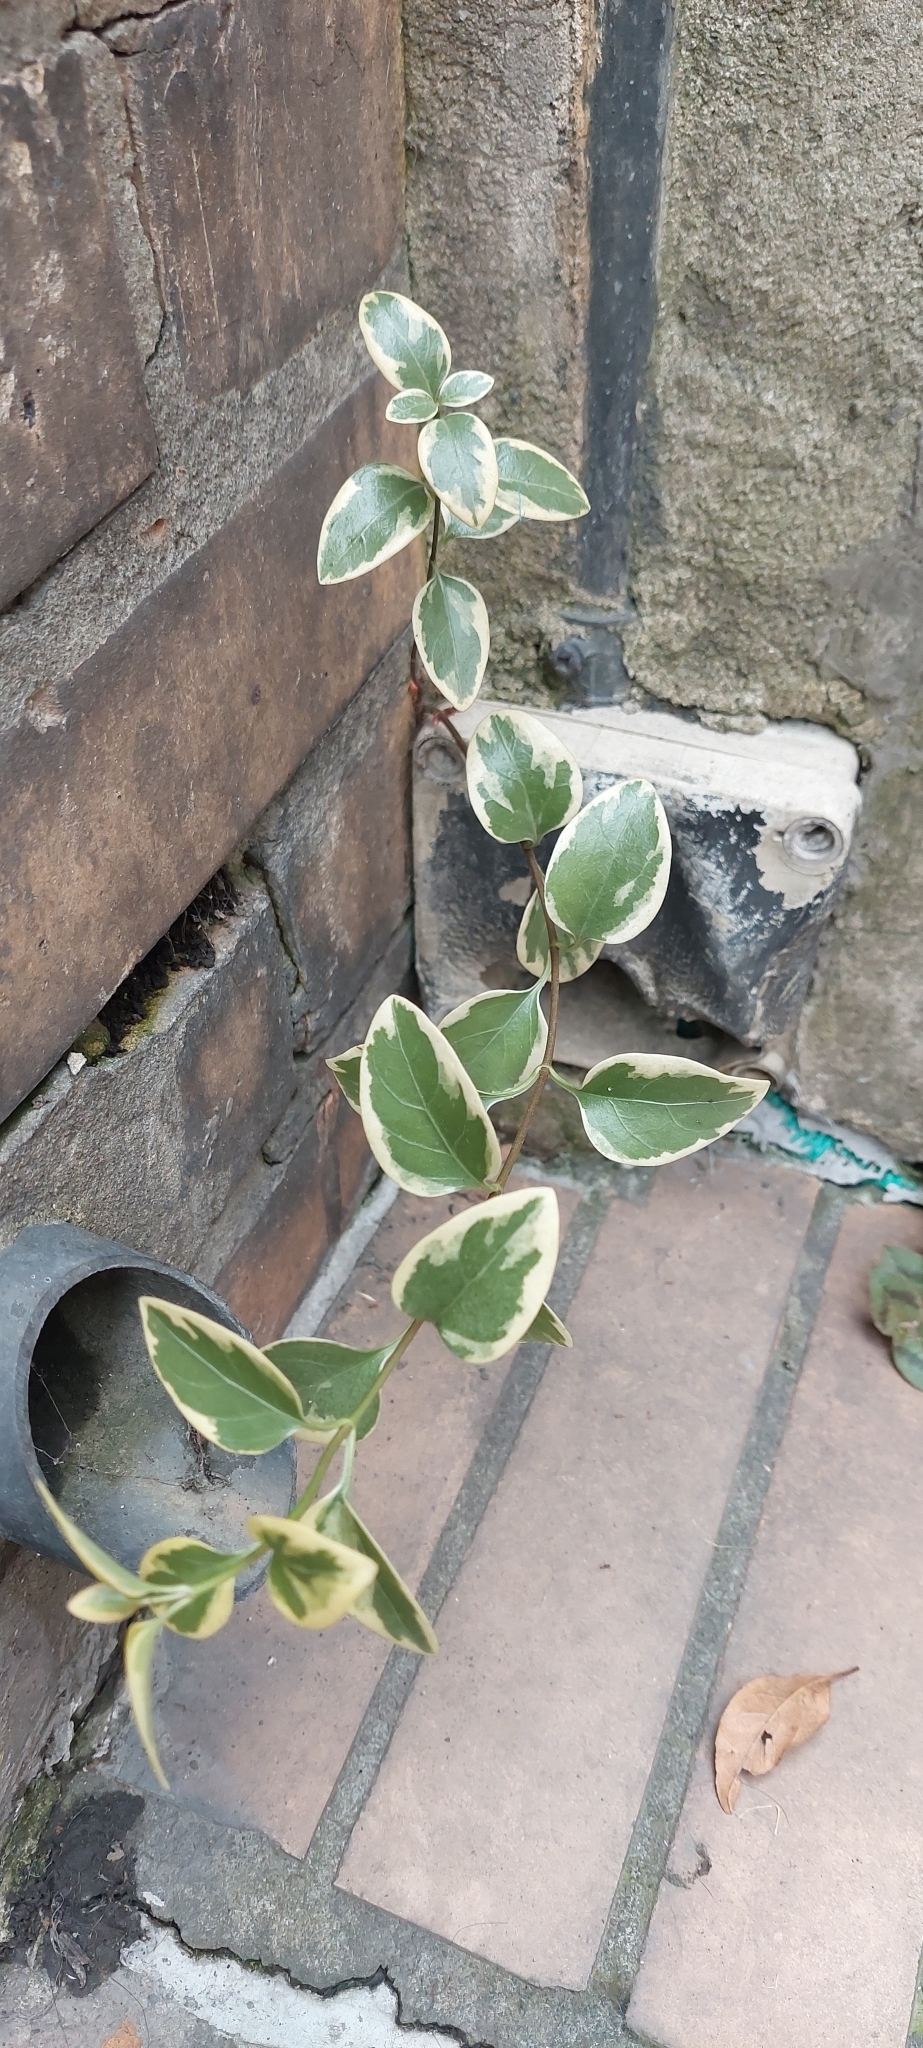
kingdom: Plantae
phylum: Tracheophyta
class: Magnoliopsida
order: Gentianales
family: Apocynaceae
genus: Vinca
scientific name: Vinca major
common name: Greater periwinkle
